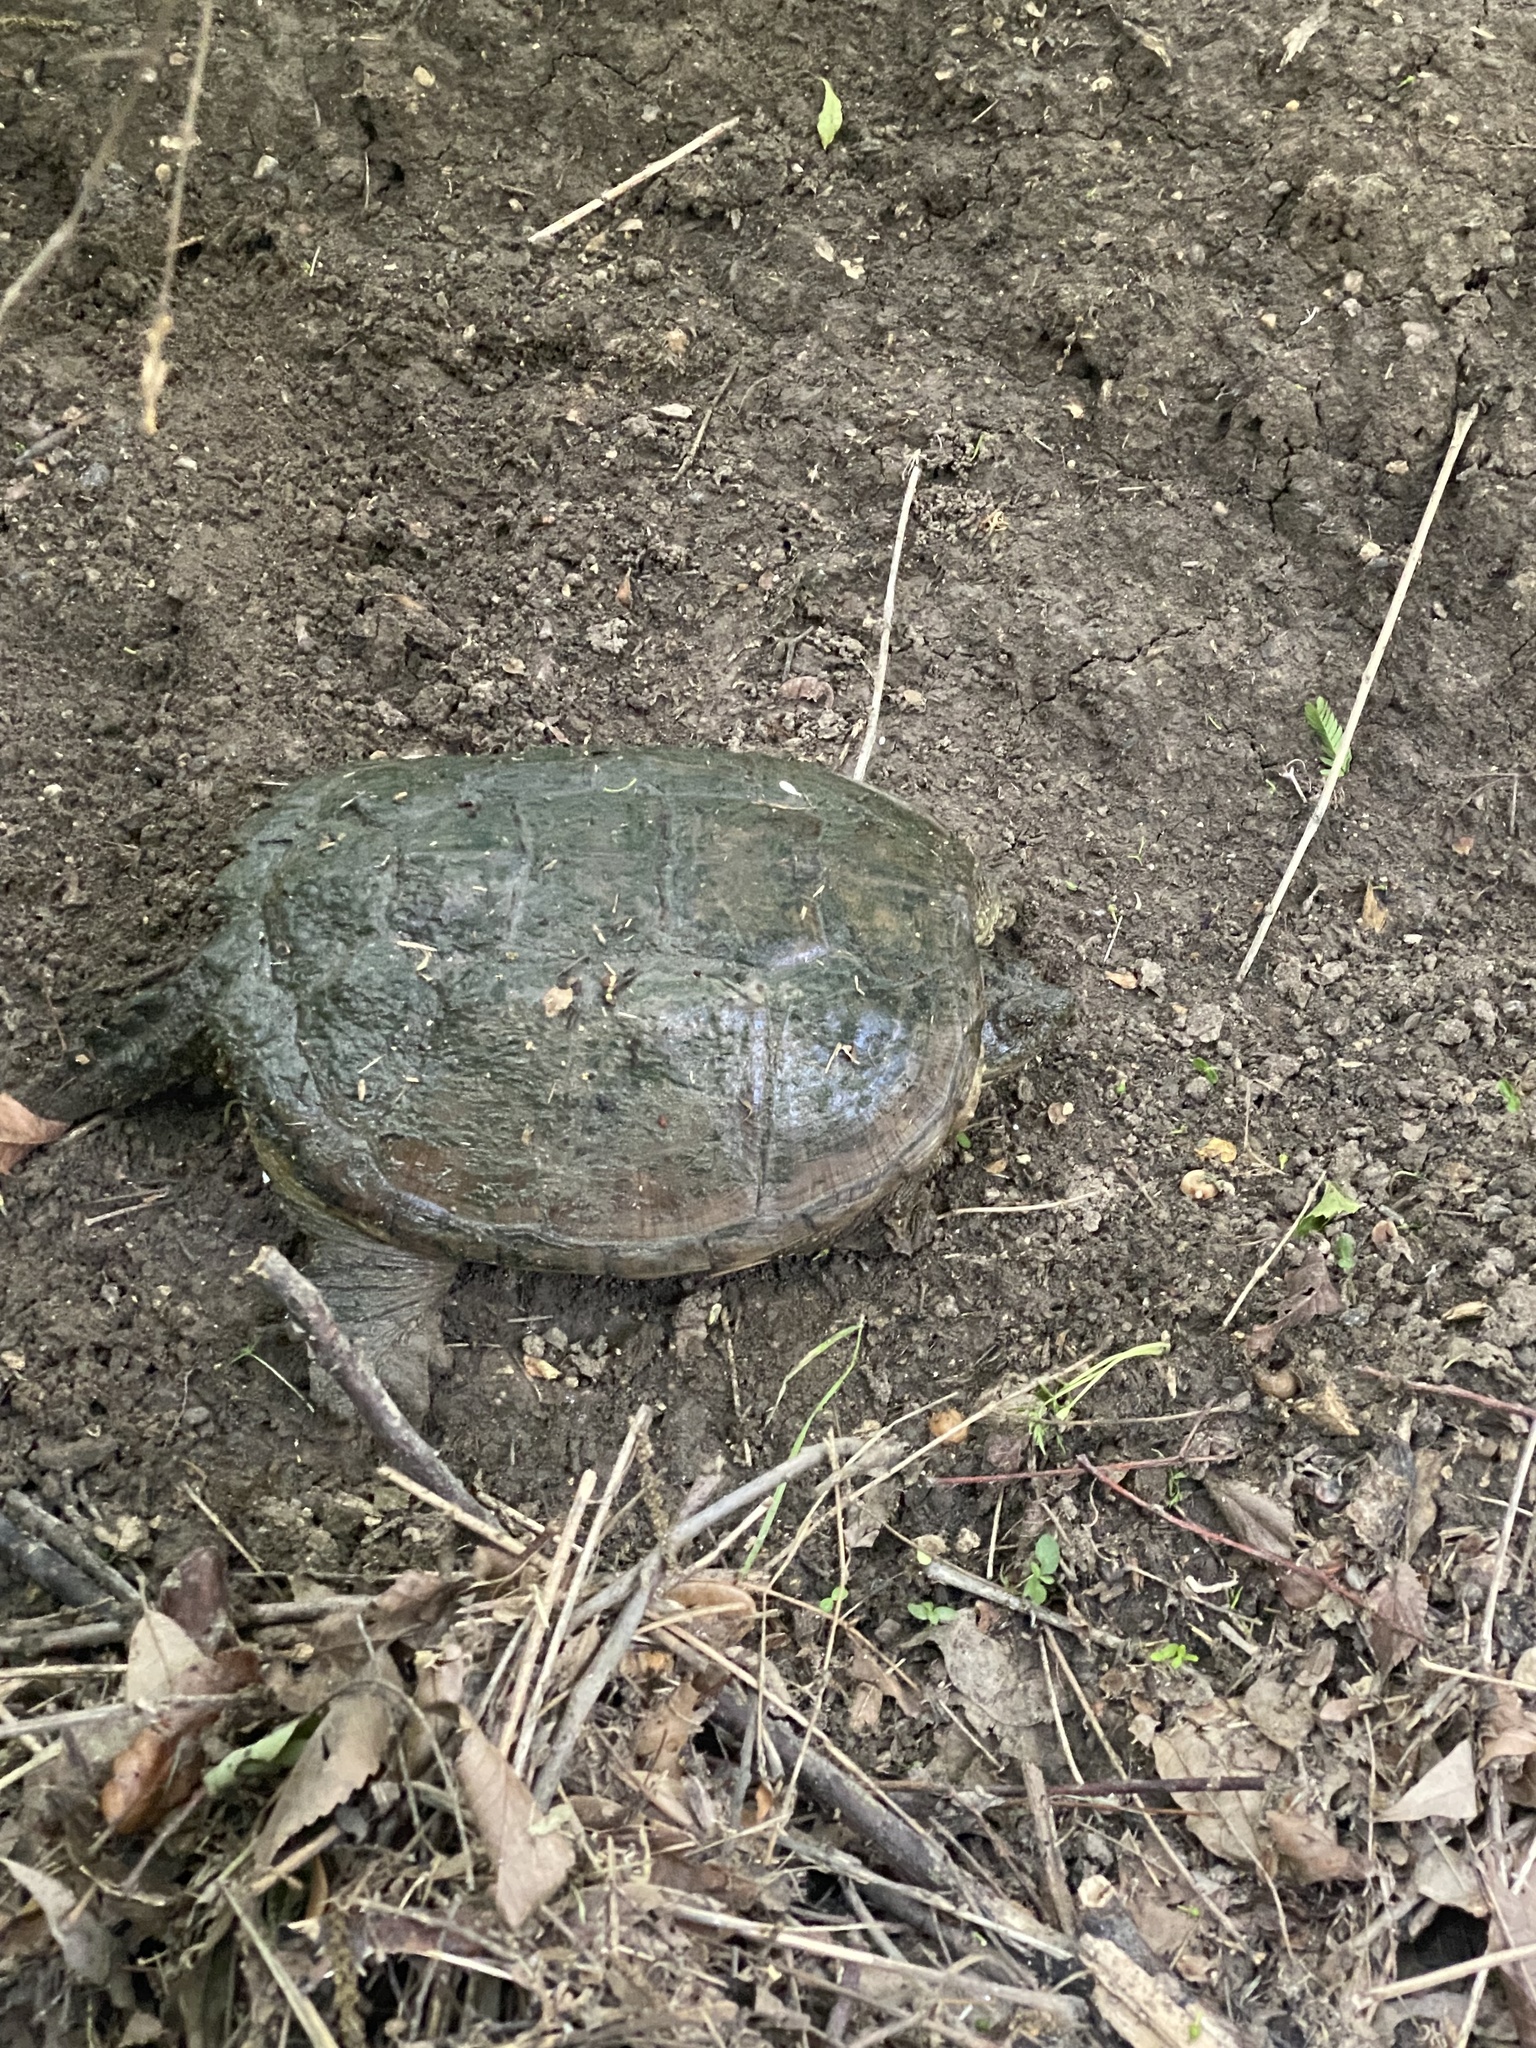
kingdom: Animalia
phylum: Chordata
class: Testudines
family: Chelydridae
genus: Chelydra
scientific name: Chelydra serpentina
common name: Common snapping turtle
